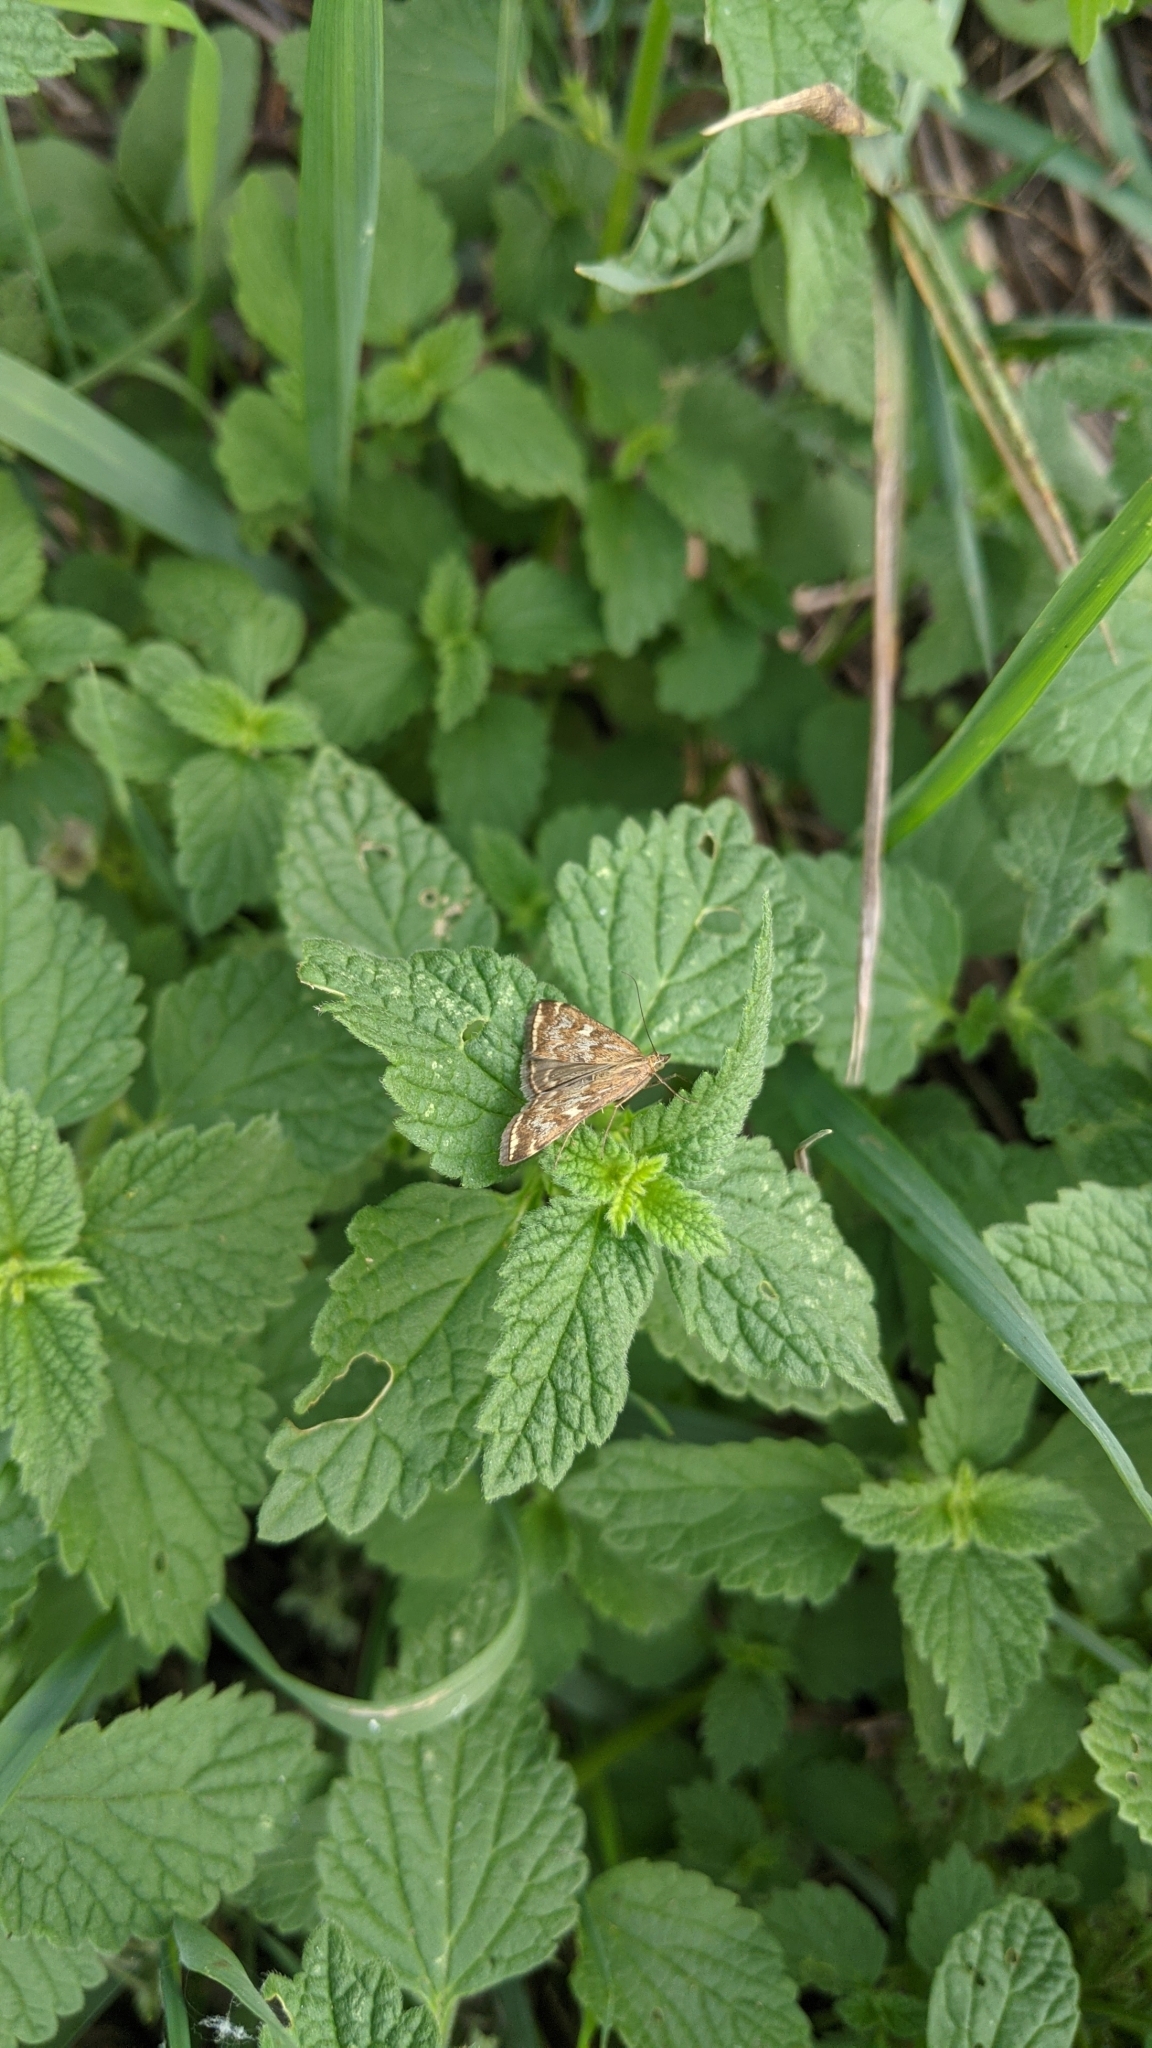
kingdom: Animalia
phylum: Arthropoda
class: Insecta
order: Lepidoptera
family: Crambidae
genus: Loxostege
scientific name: Loxostege sticticalis
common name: Crambid moth
